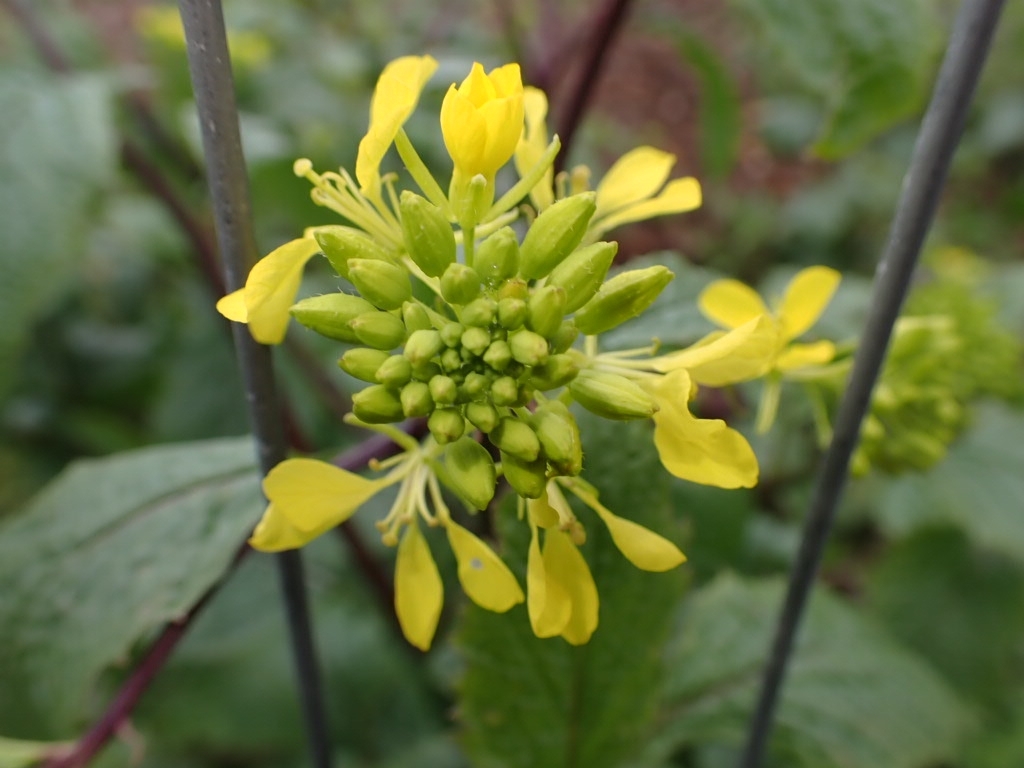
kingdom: Plantae
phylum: Tracheophyta
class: Magnoliopsida
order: Brassicales
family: Brassicaceae
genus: Sinapis
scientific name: Sinapis arvensis
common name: Charlock
